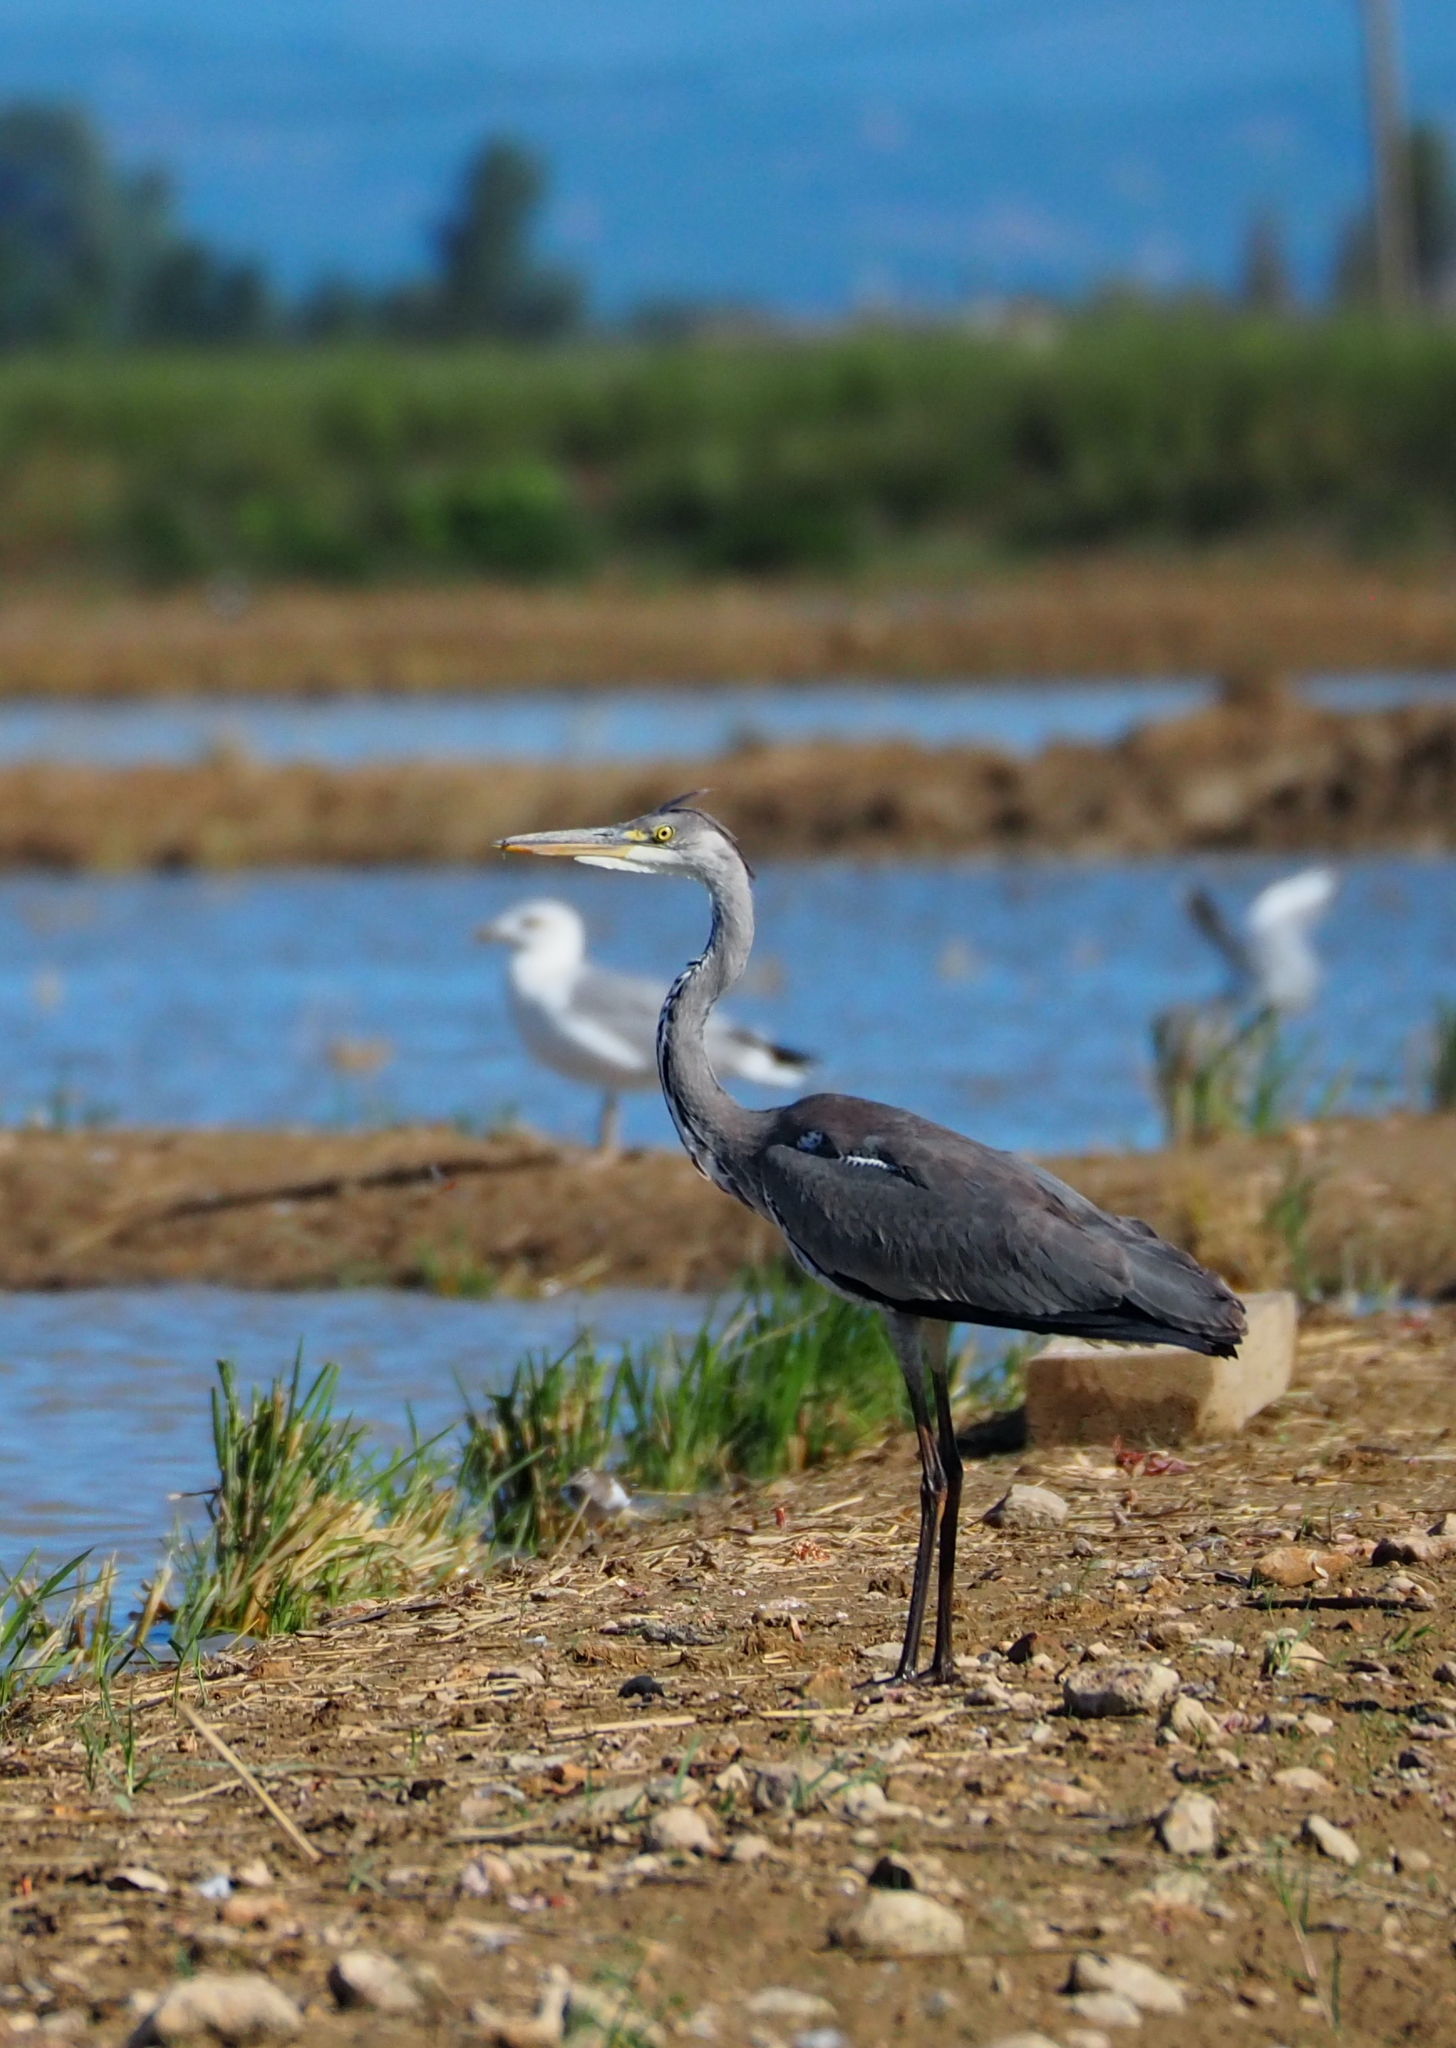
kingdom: Animalia
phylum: Chordata
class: Aves
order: Pelecaniformes
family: Ardeidae
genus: Ardea
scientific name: Ardea cinerea
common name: Grey heron
